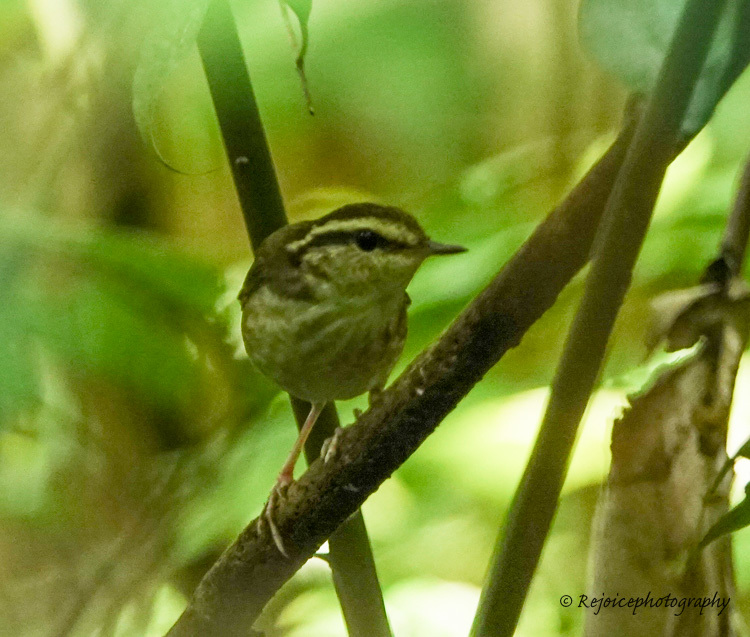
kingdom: Animalia
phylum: Chordata
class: Aves
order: Passeriformes
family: Cettiidae
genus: Urosphena
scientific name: Urosphena squameiceps
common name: Asian stubtail
